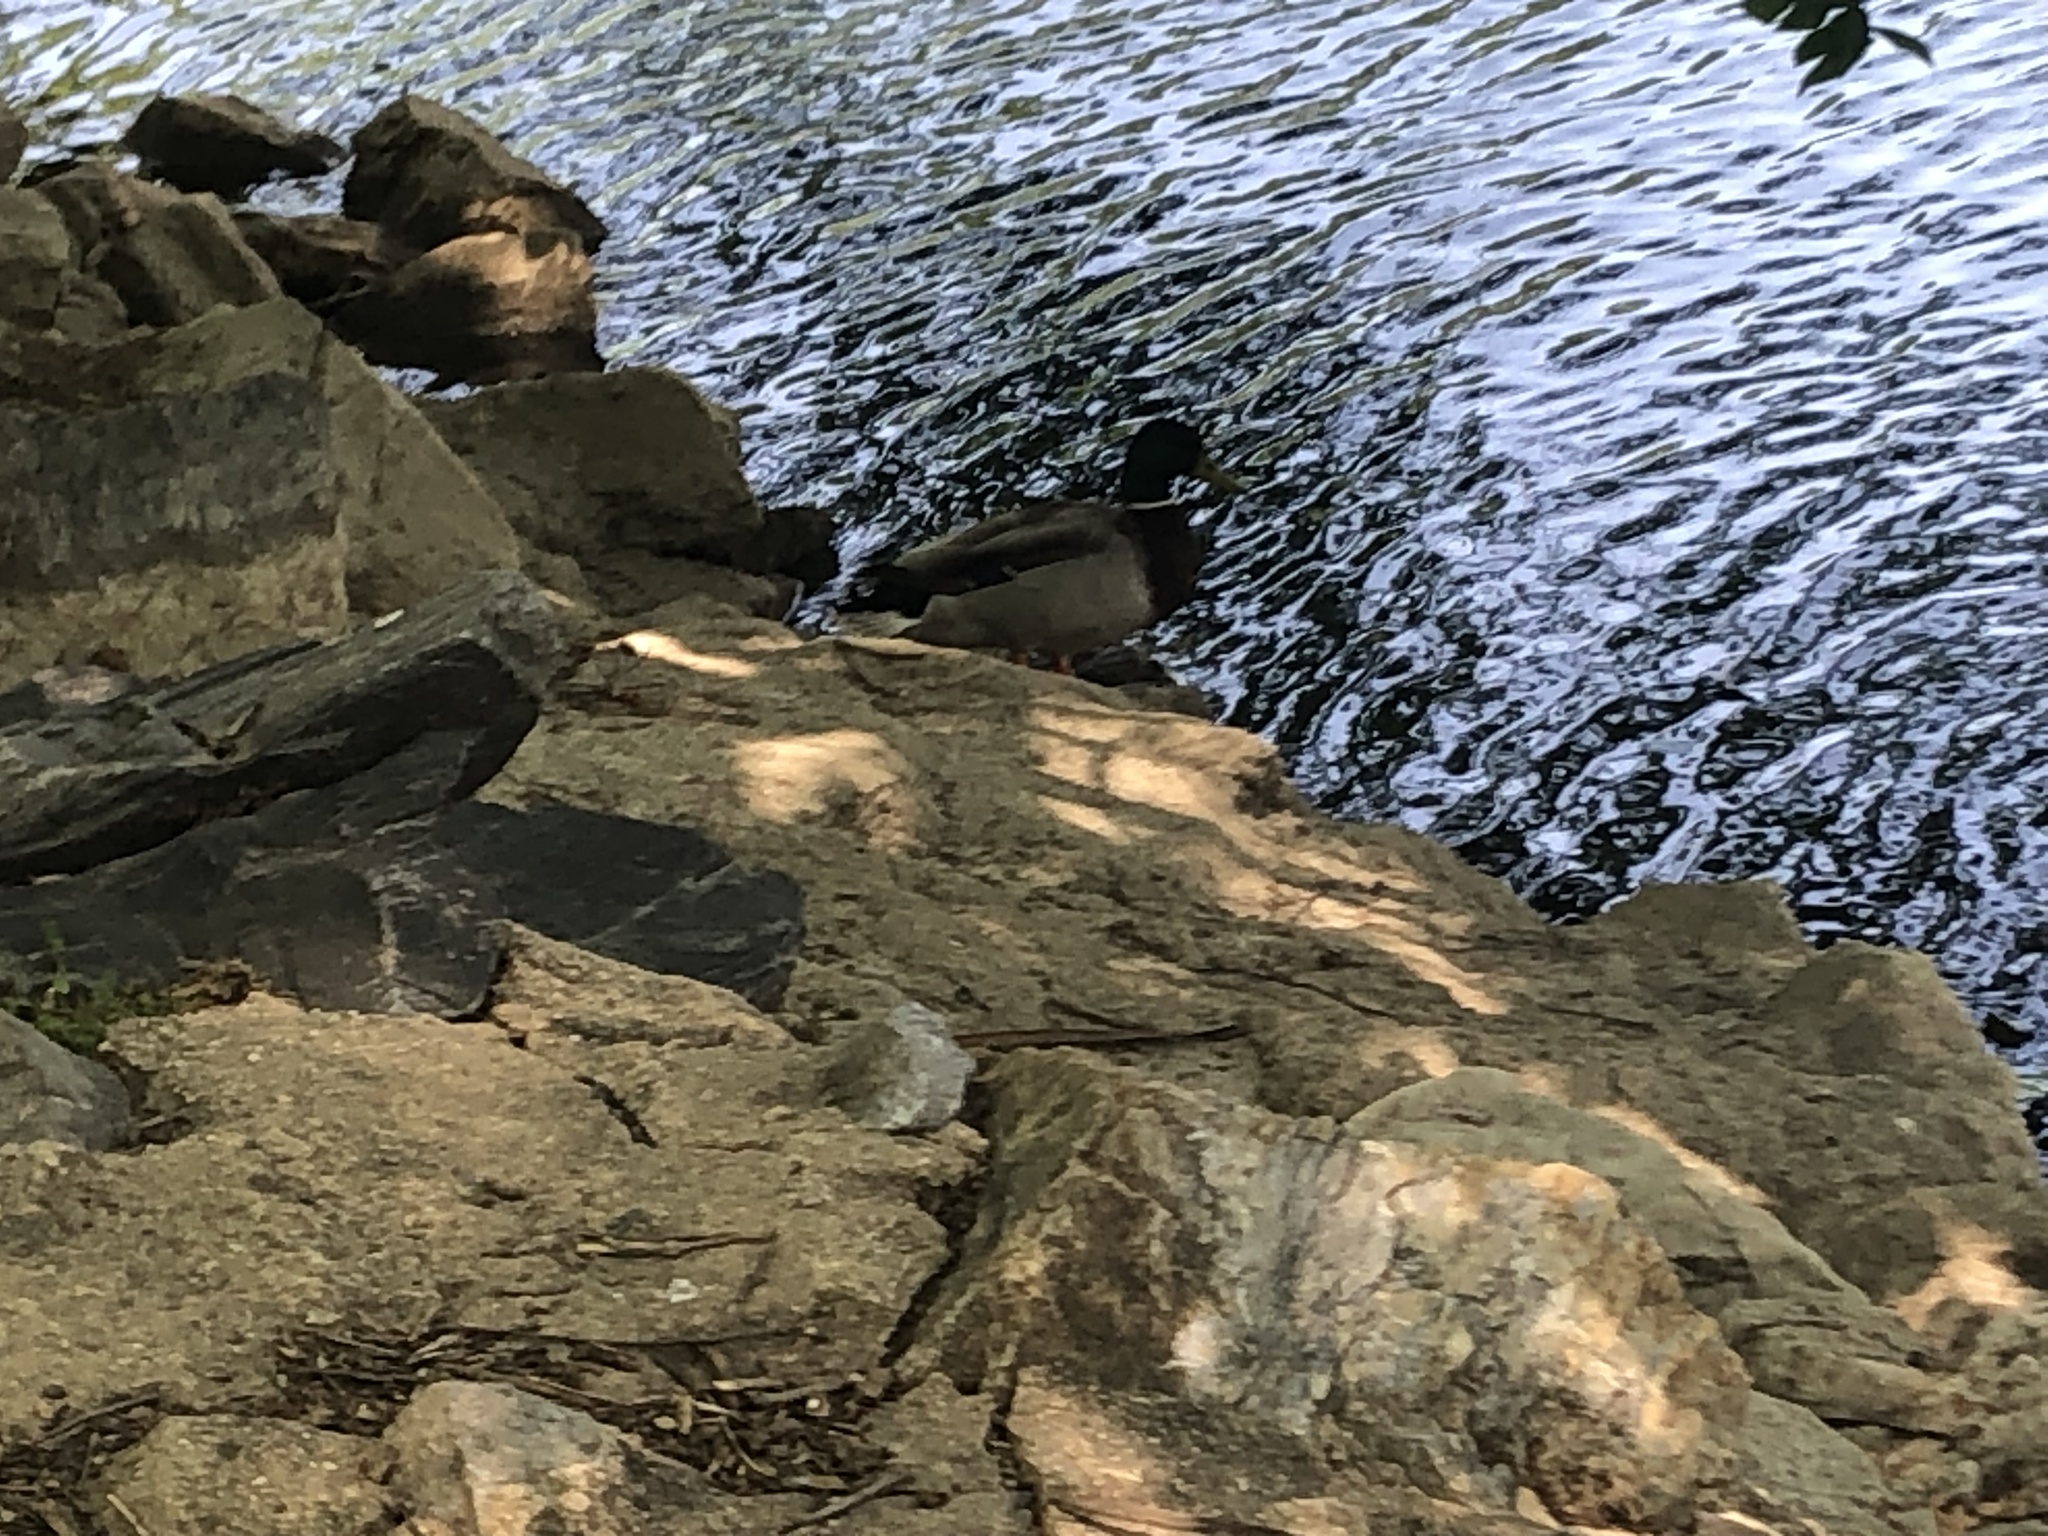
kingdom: Animalia
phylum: Chordata
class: Aves
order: Anseriformes
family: Anatidae
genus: Anas
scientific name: Anas platyrhynchos
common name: Mallard
